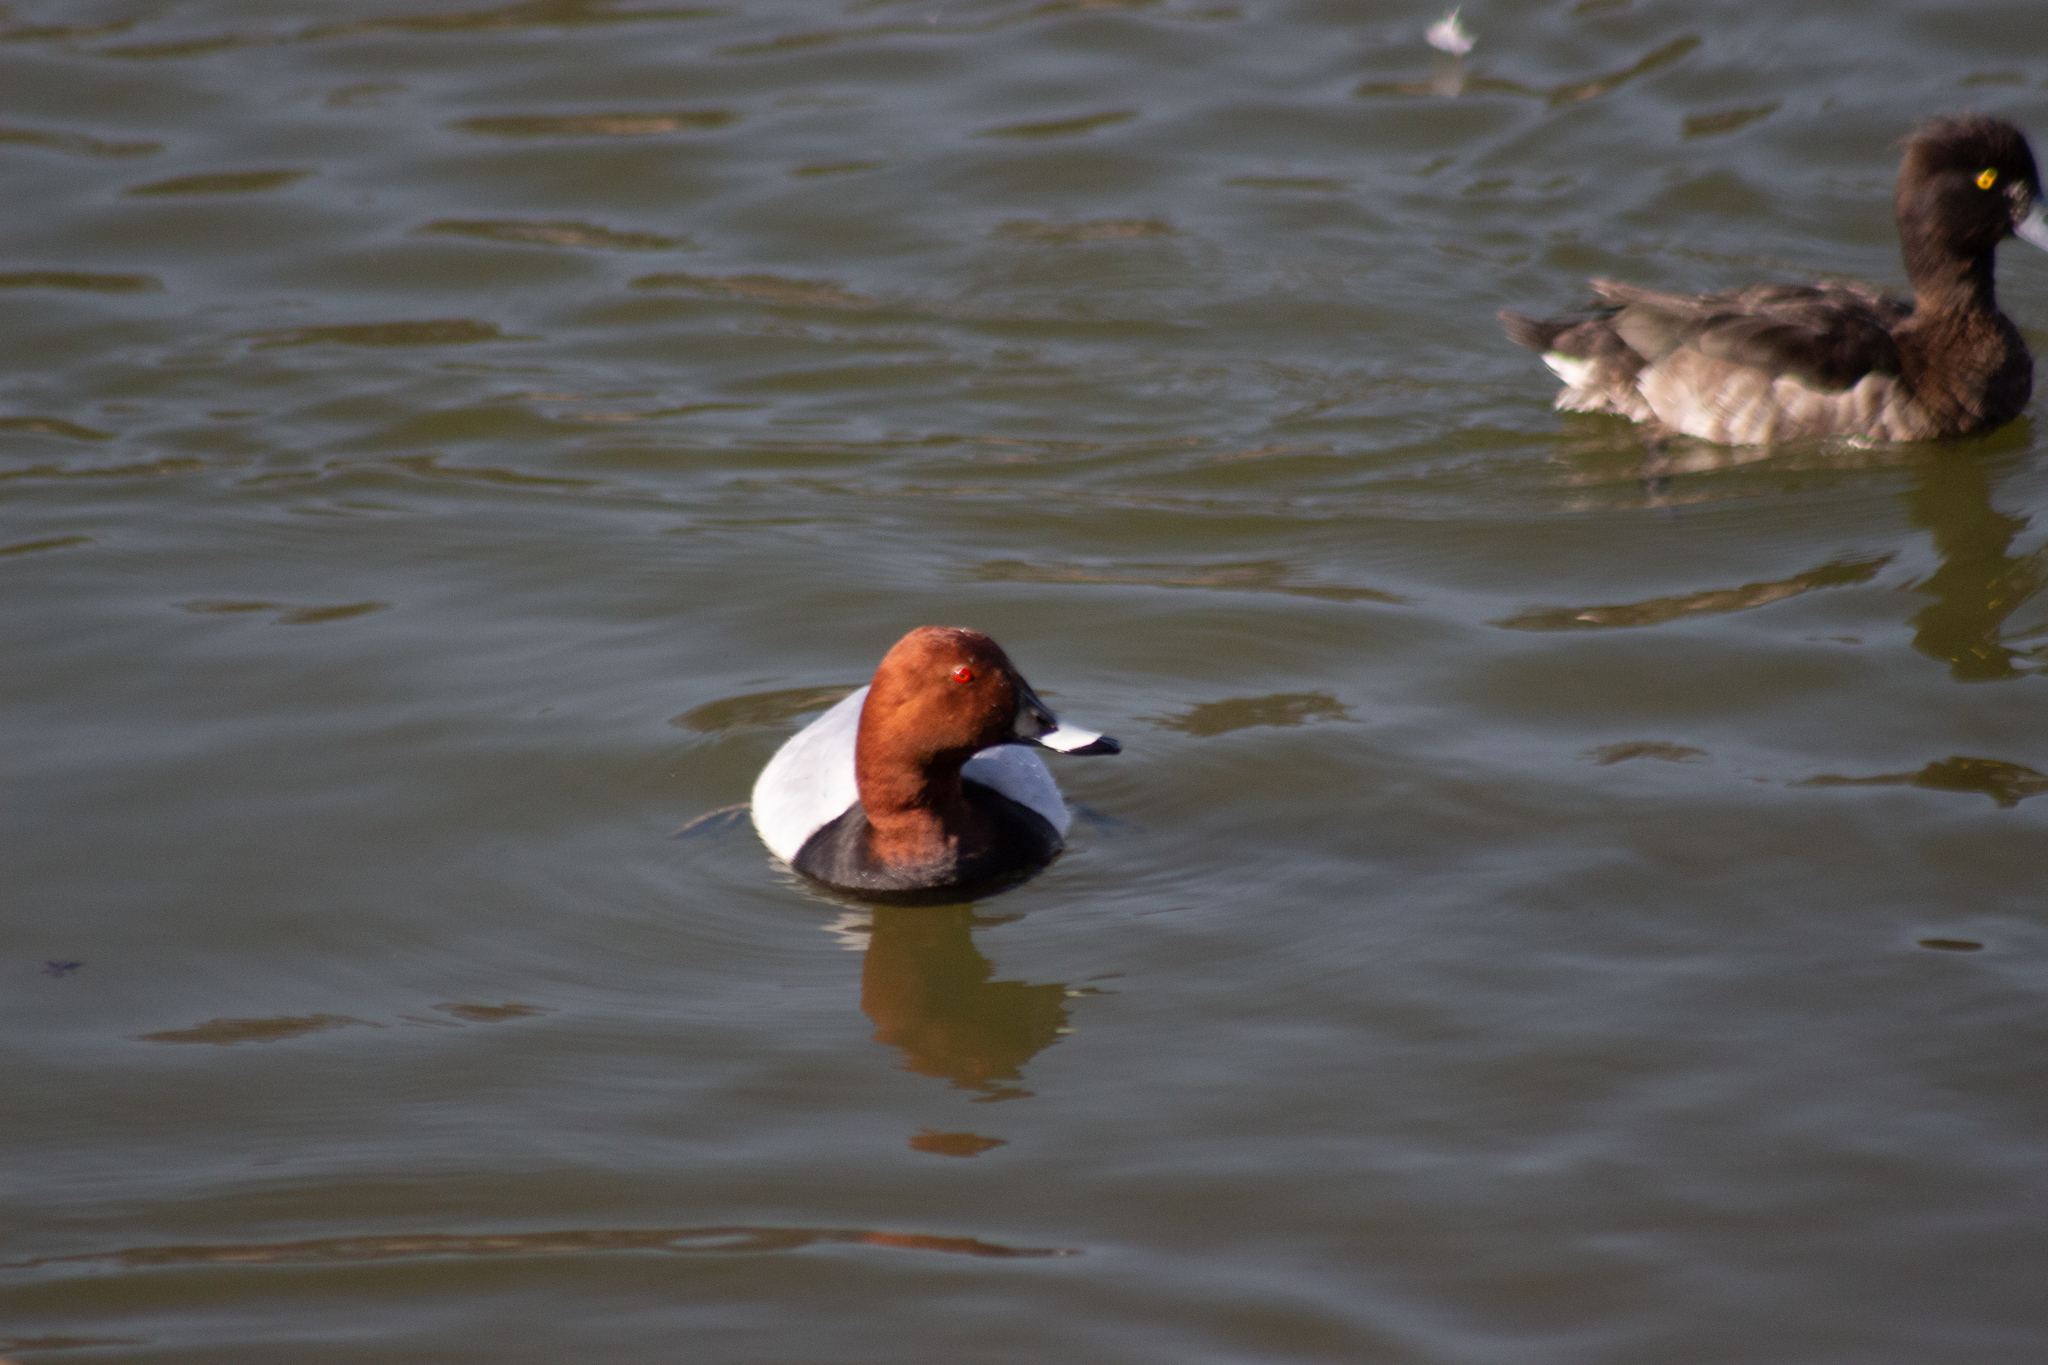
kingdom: Animalia
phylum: Chordata
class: Aves
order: Anseriformes
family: Anatidae
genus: Aythya
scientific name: Aythya ferina
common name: Common pochard
